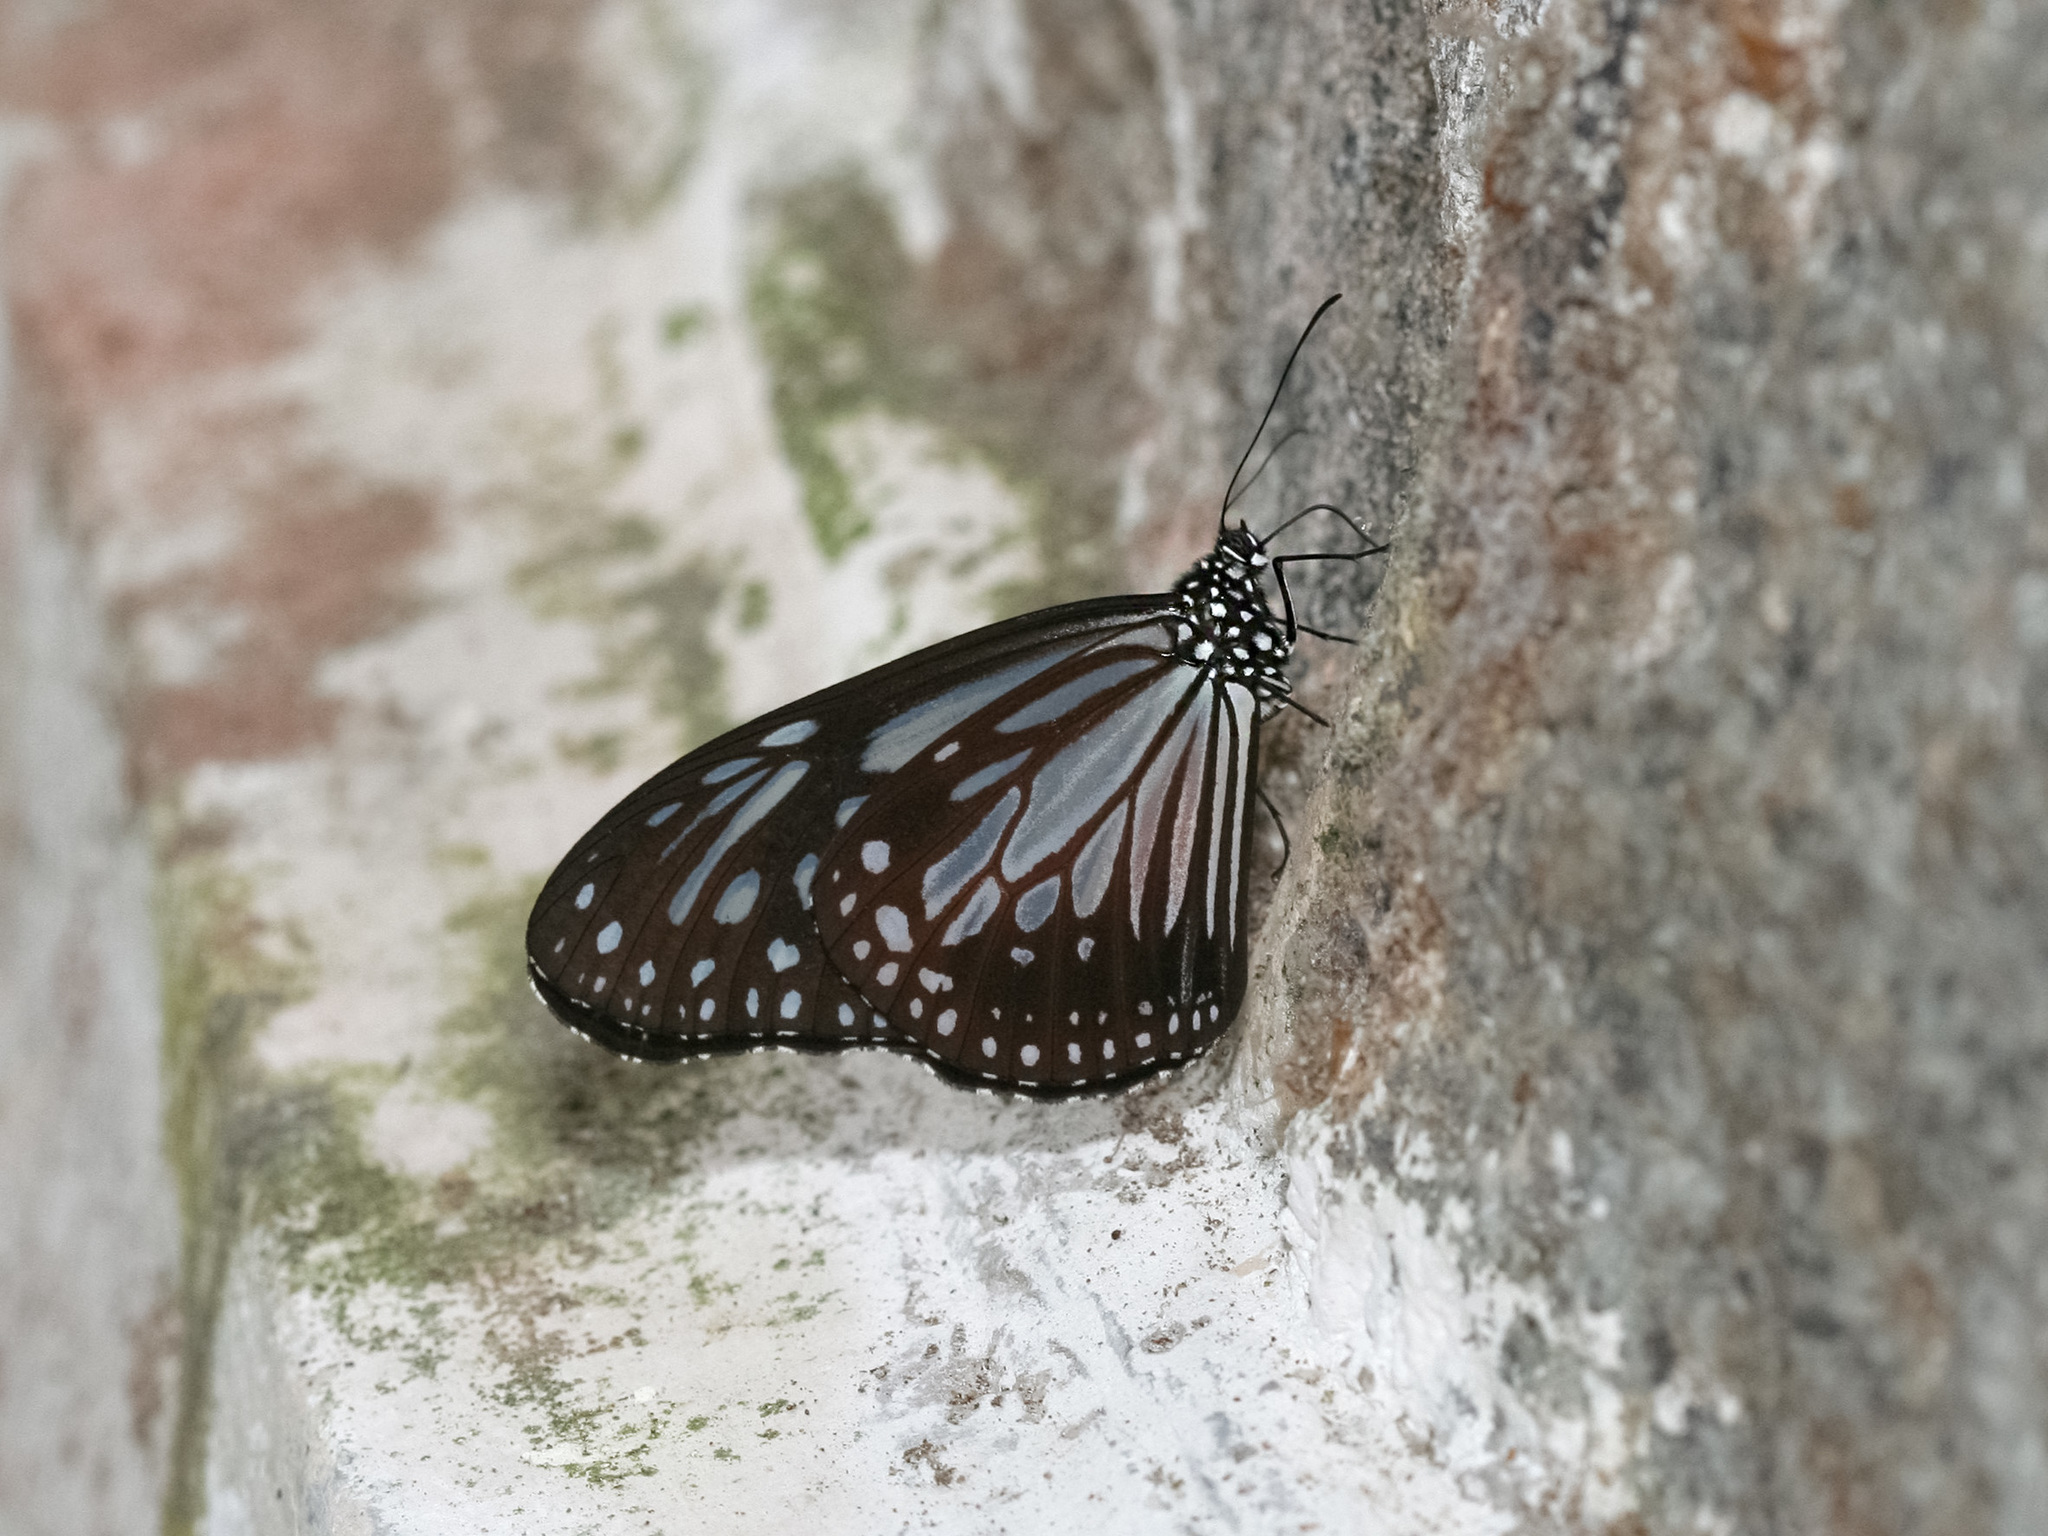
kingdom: Animalia
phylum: Arthropoda
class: Insecta
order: Lepidoptera
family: Nymphalidae
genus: Parantica
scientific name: Parantica melaneus
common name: Chocolate tiger
